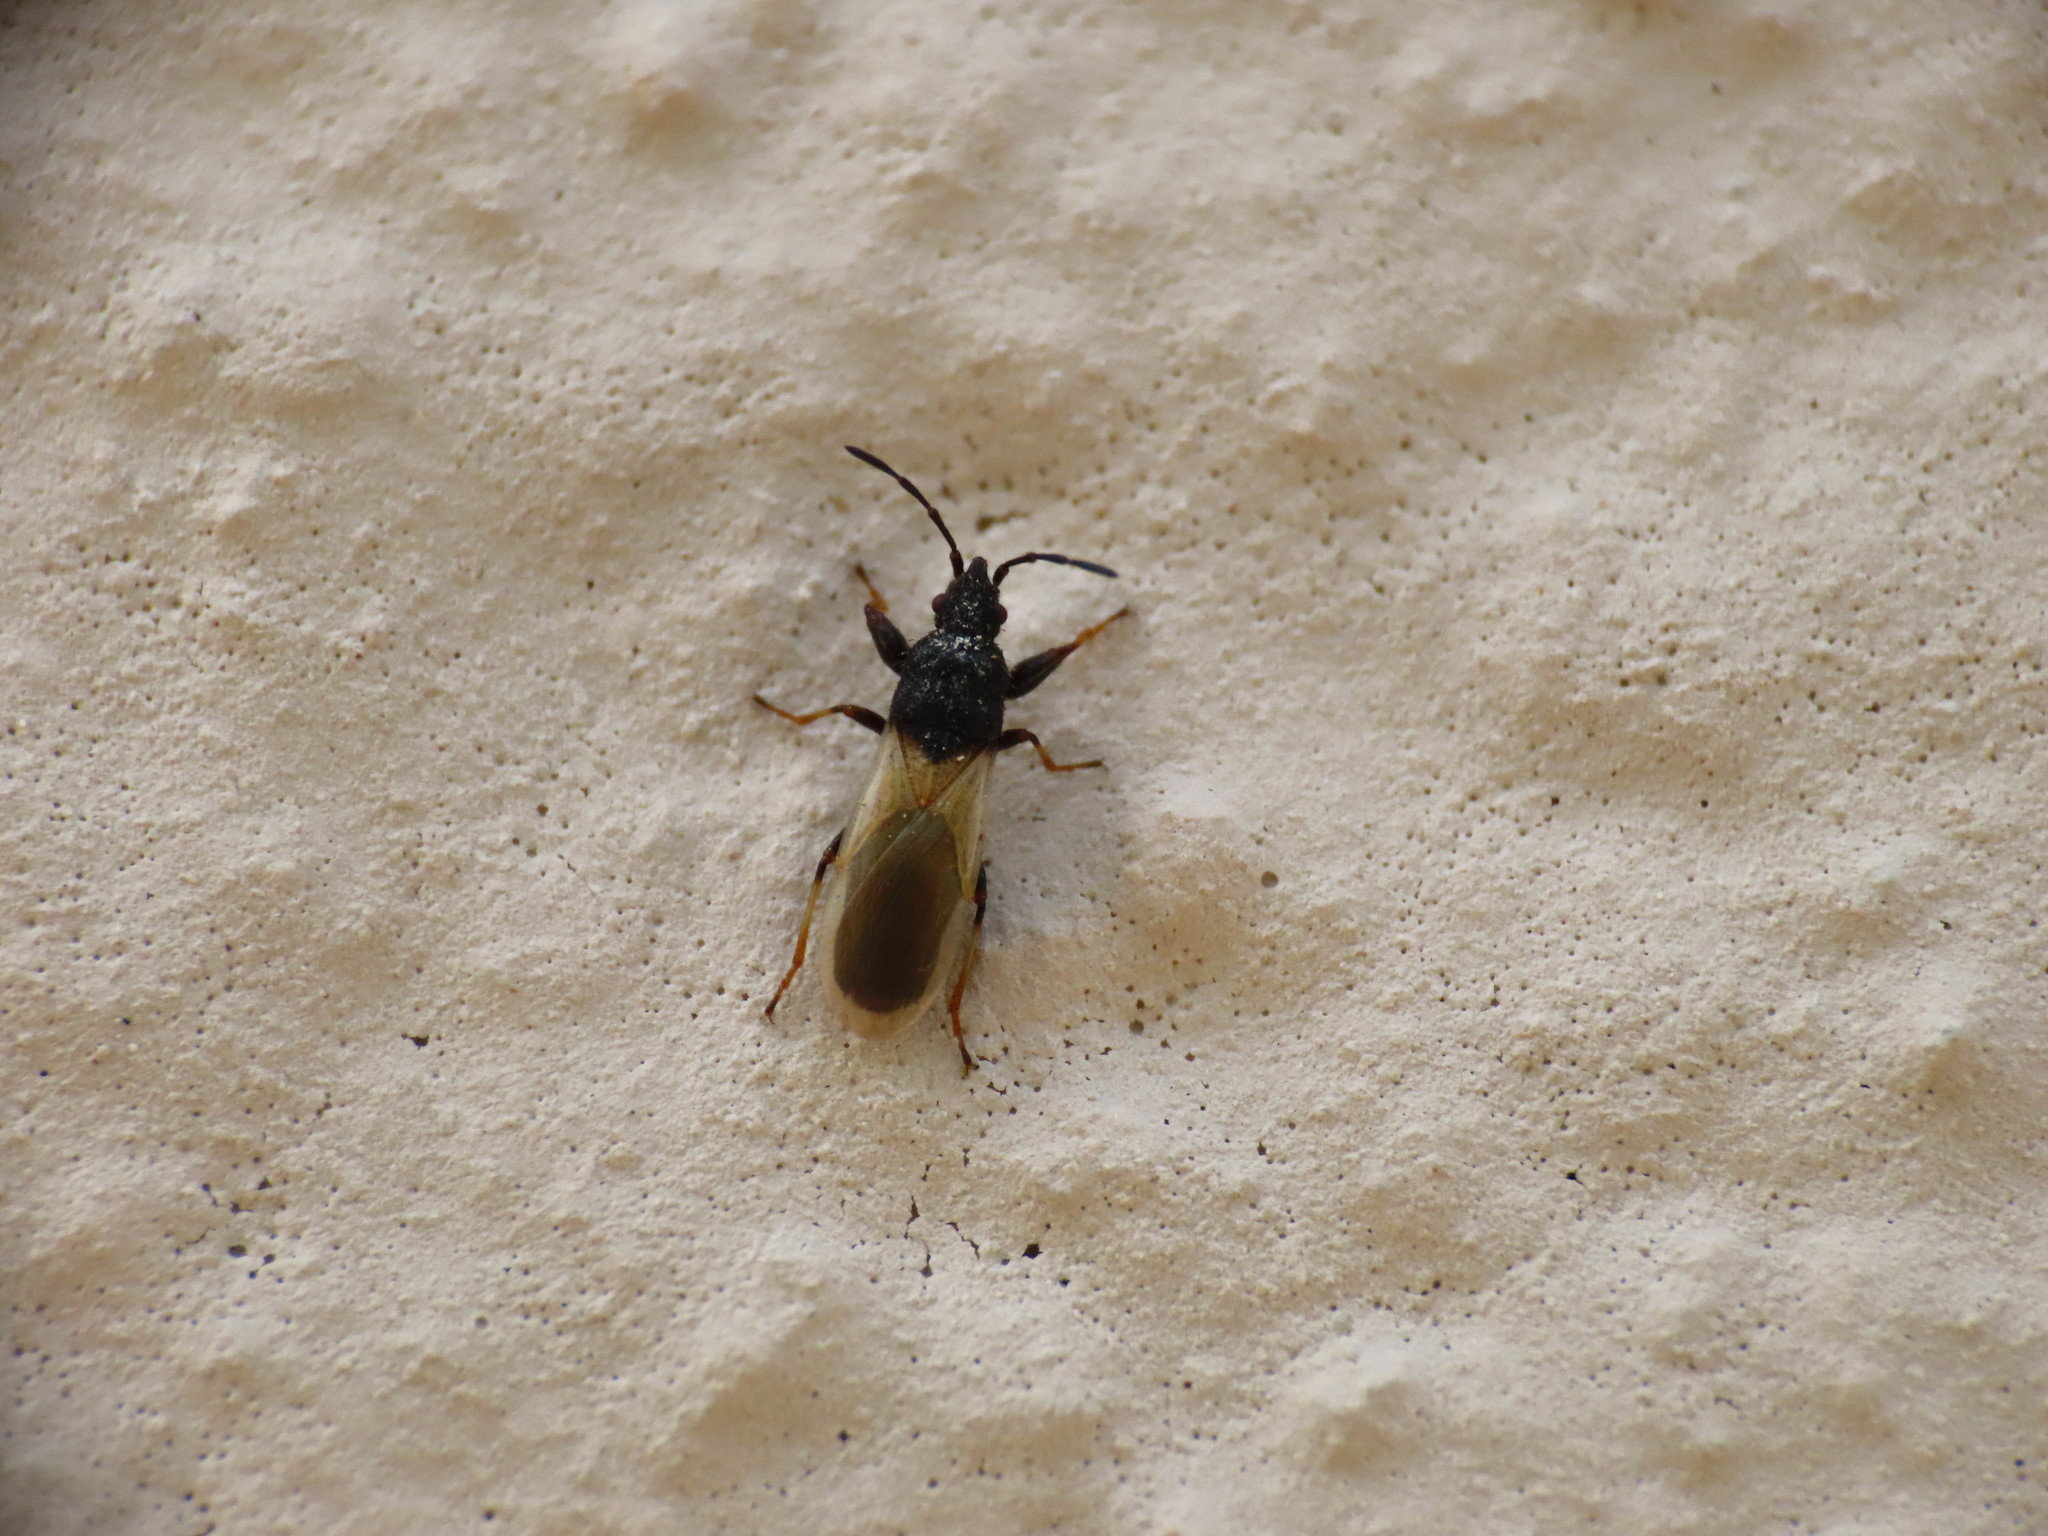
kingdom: Animalia
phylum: Arthropoda
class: Insecta
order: Hemiptera
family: Oxycarenidae
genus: Brachyplax
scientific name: Brachyplax tenuis
